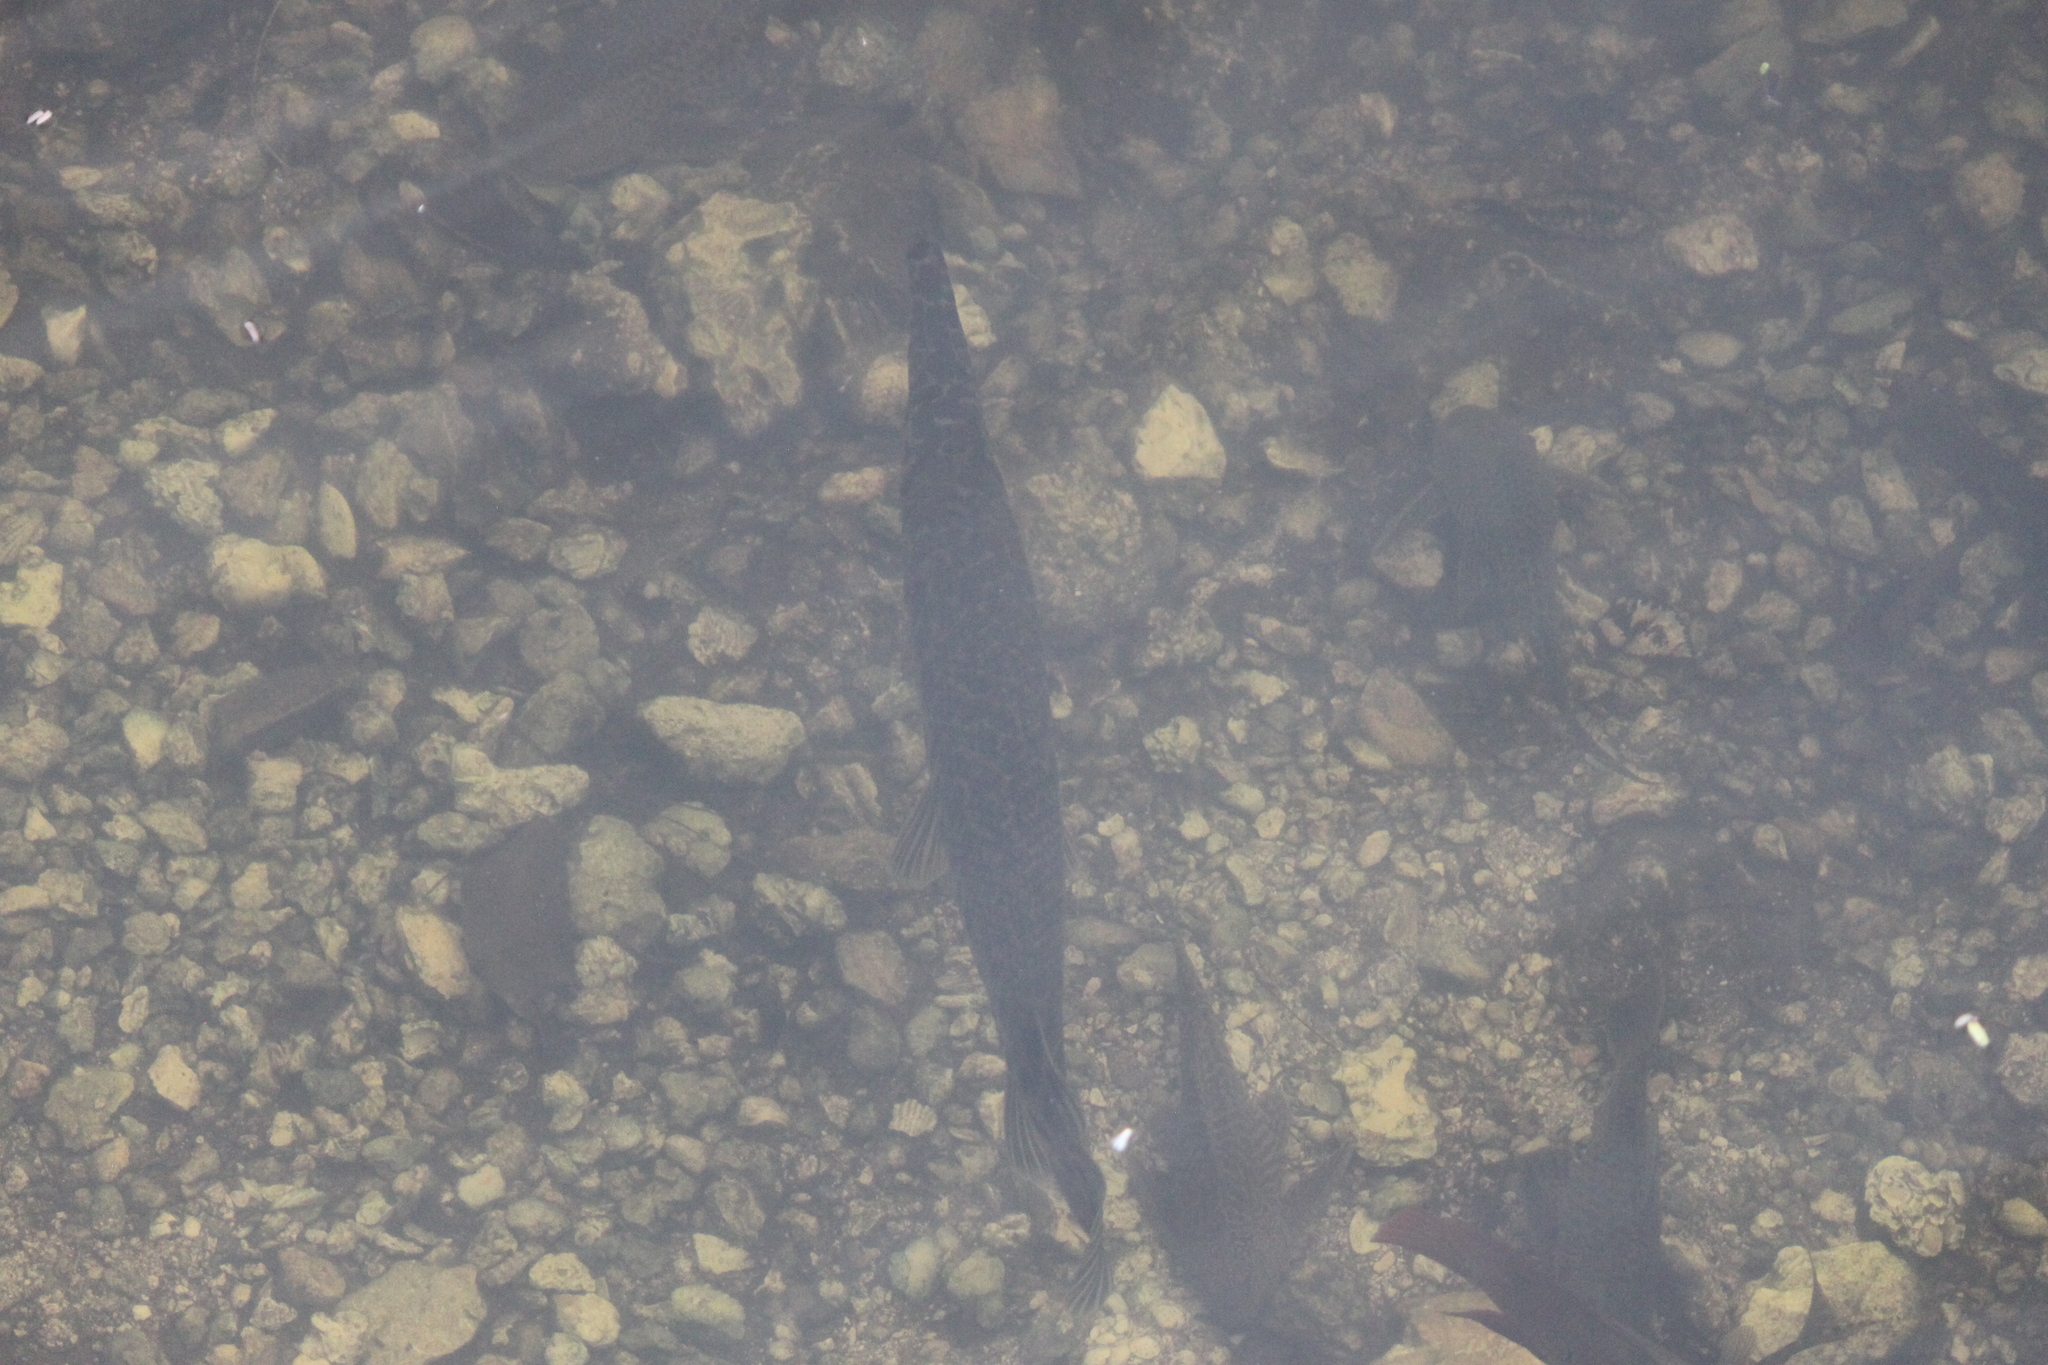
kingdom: Animalia
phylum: Chordata
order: Lepisosteiformes
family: Lepisosteidae
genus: Lepisosteus
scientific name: Lepisosteus platyrhincus
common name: Florida gar
